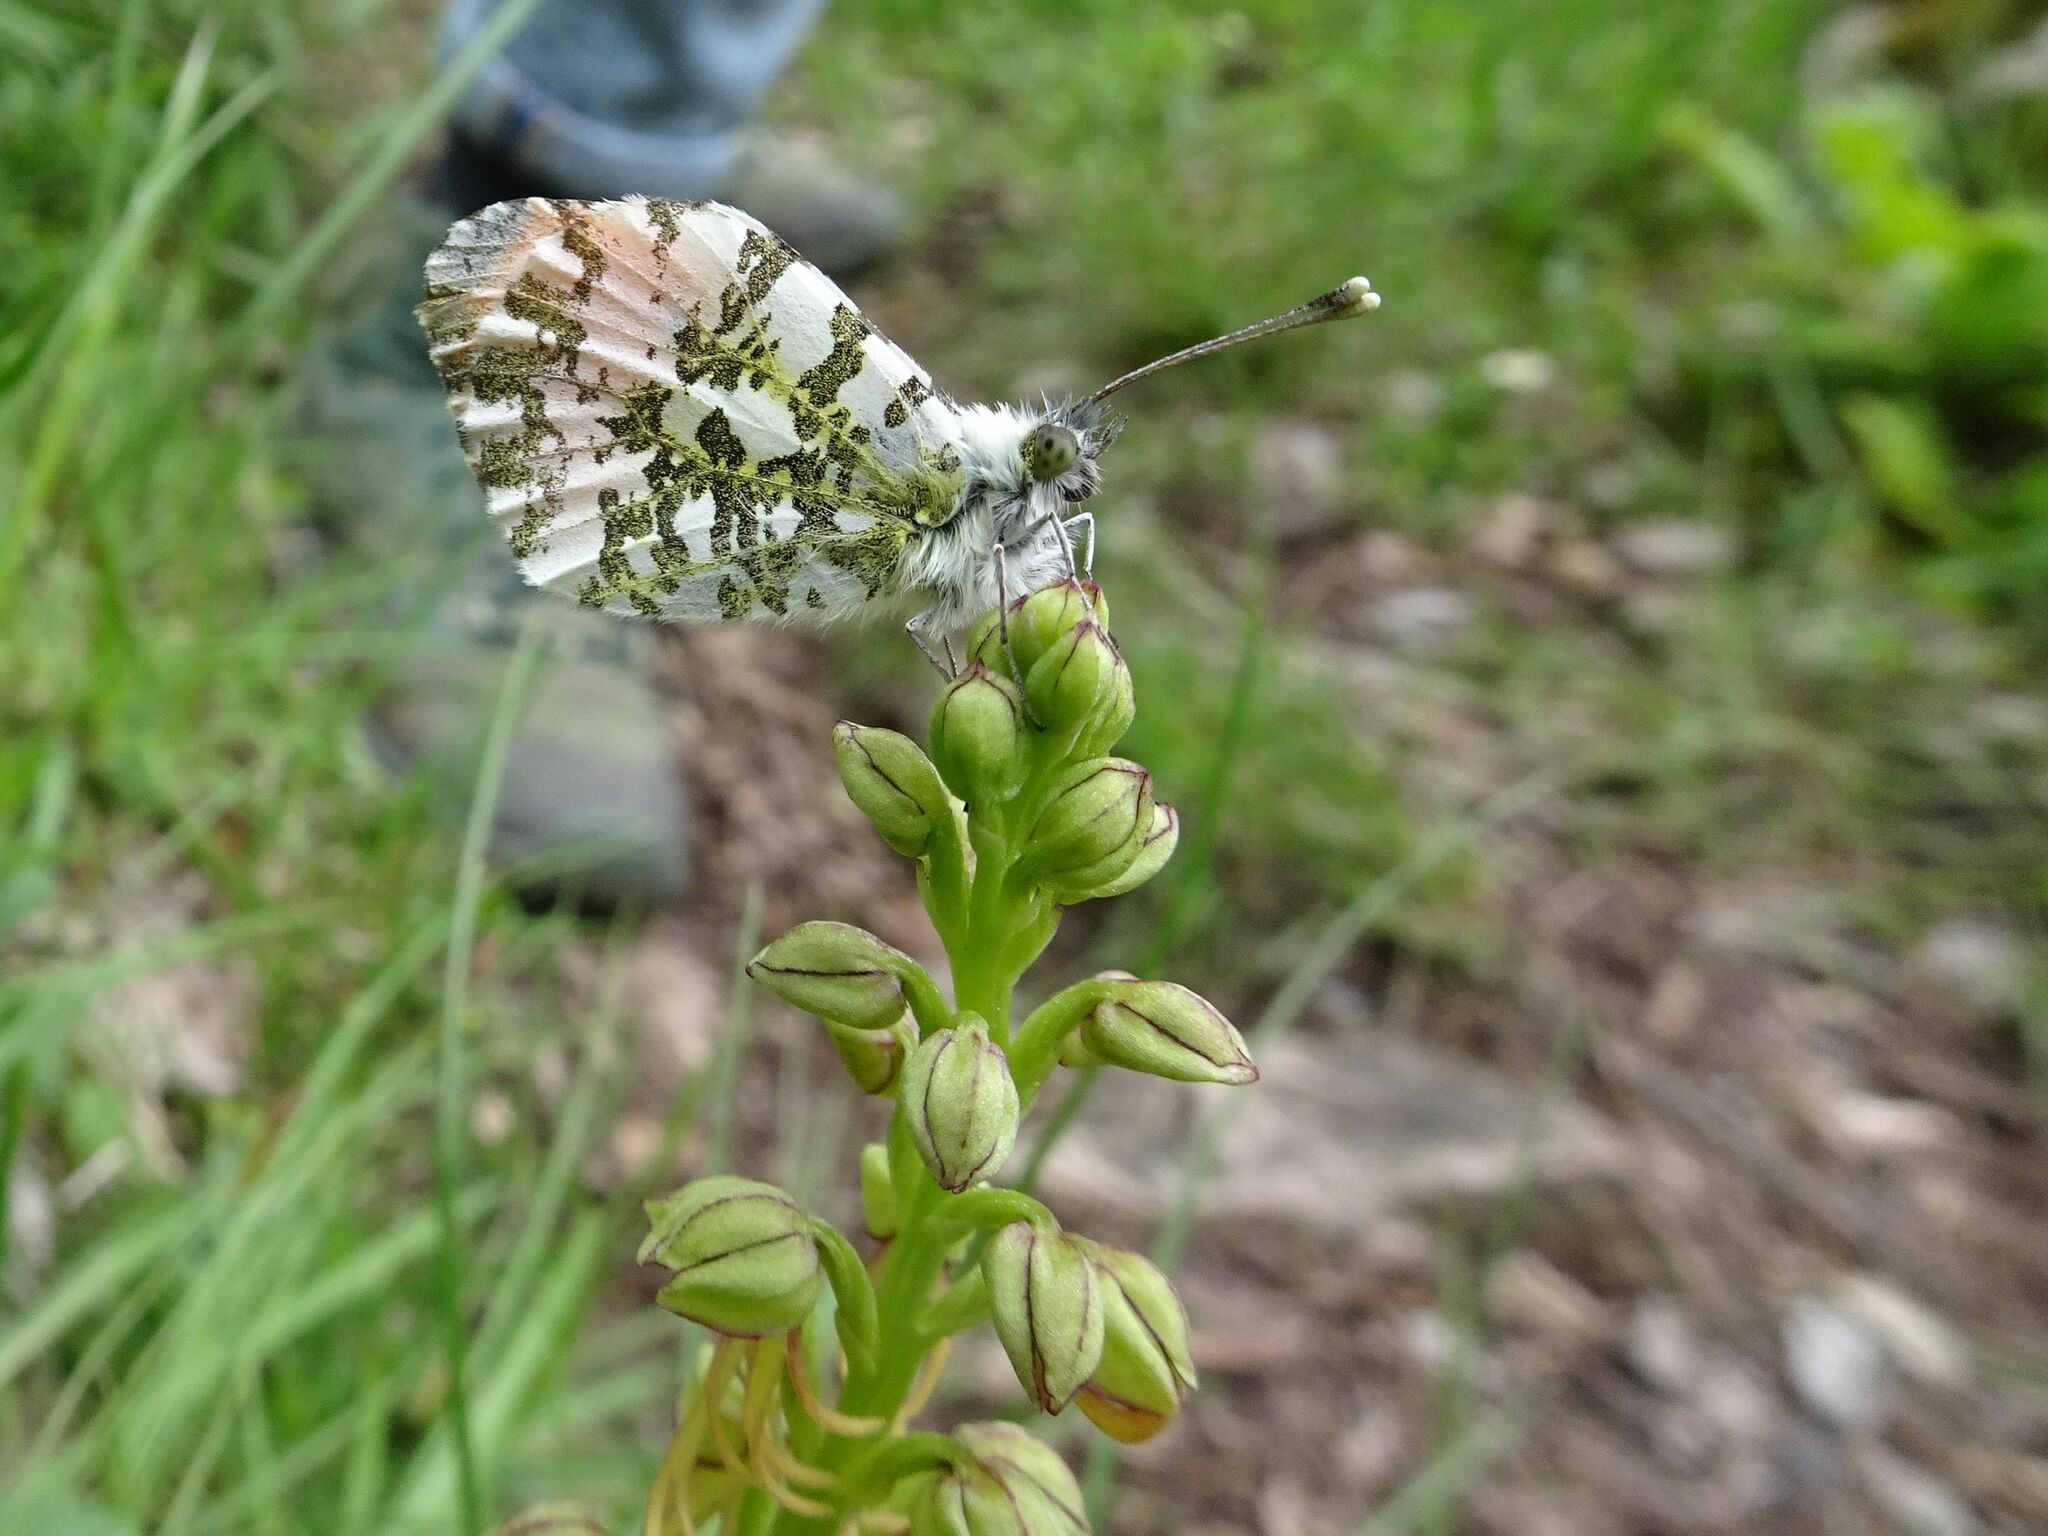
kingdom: Animalia
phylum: Arthropoda
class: Insecta
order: Lepidoptera
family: Pieridae
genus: Anthocharis
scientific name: Anthocharis cardamines
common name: Orange-tip
